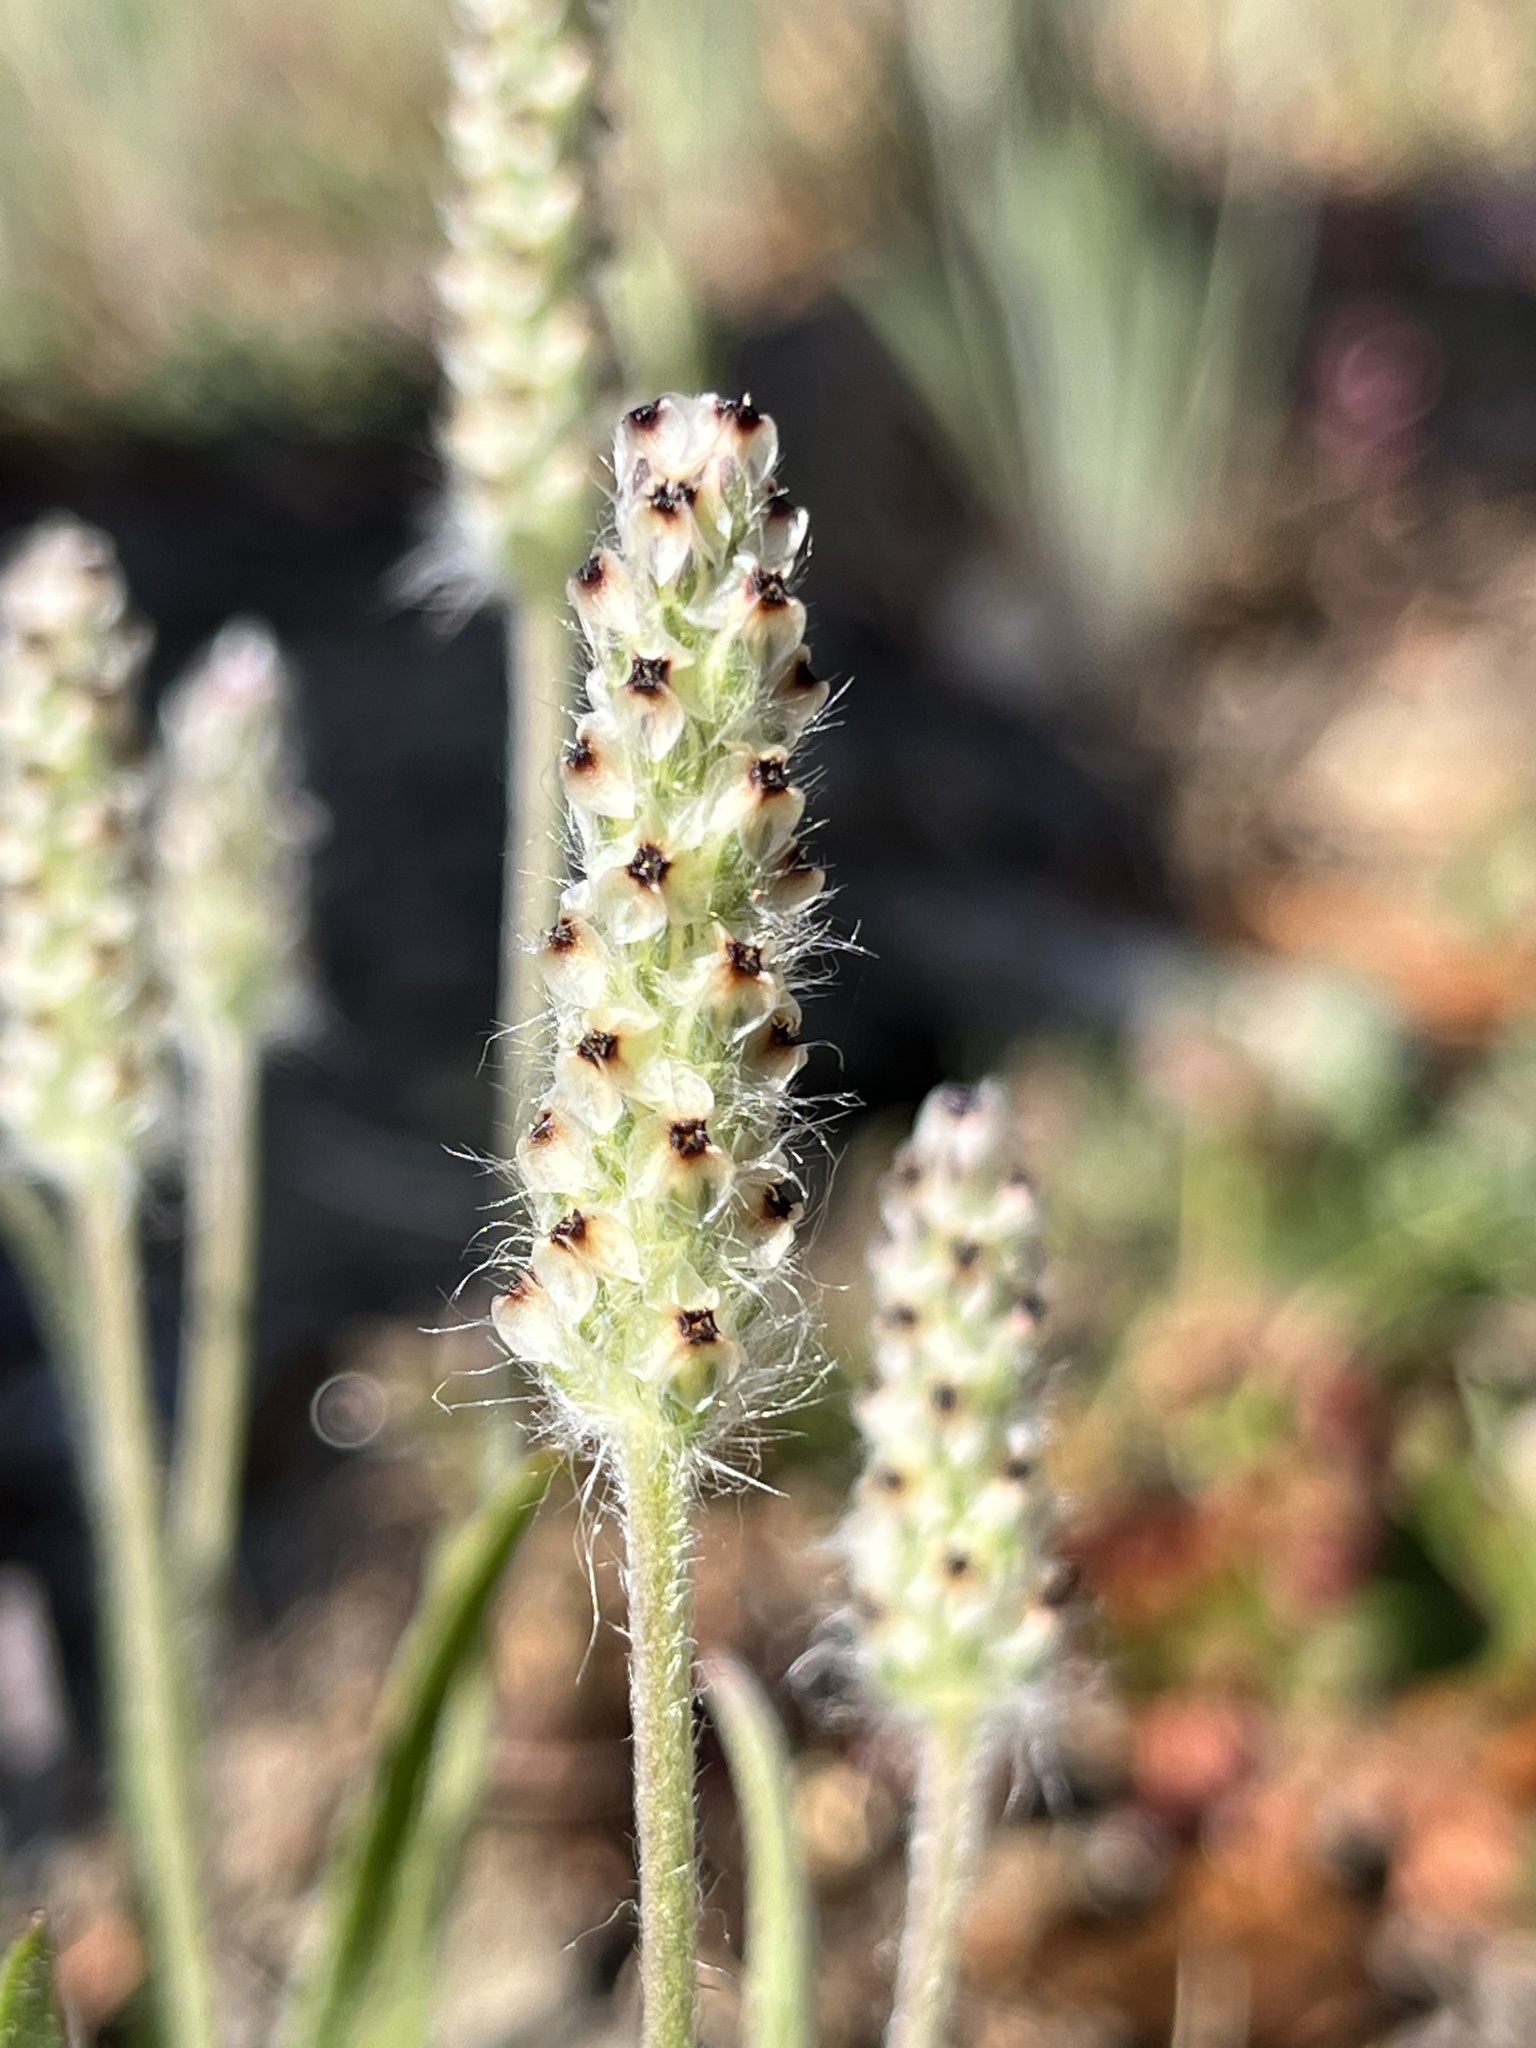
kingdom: Plantae
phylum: Tracheophyta
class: Magnoliopsida
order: Lamiales
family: Plantaginaceae
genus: Plantago
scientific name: Plantago erecta
